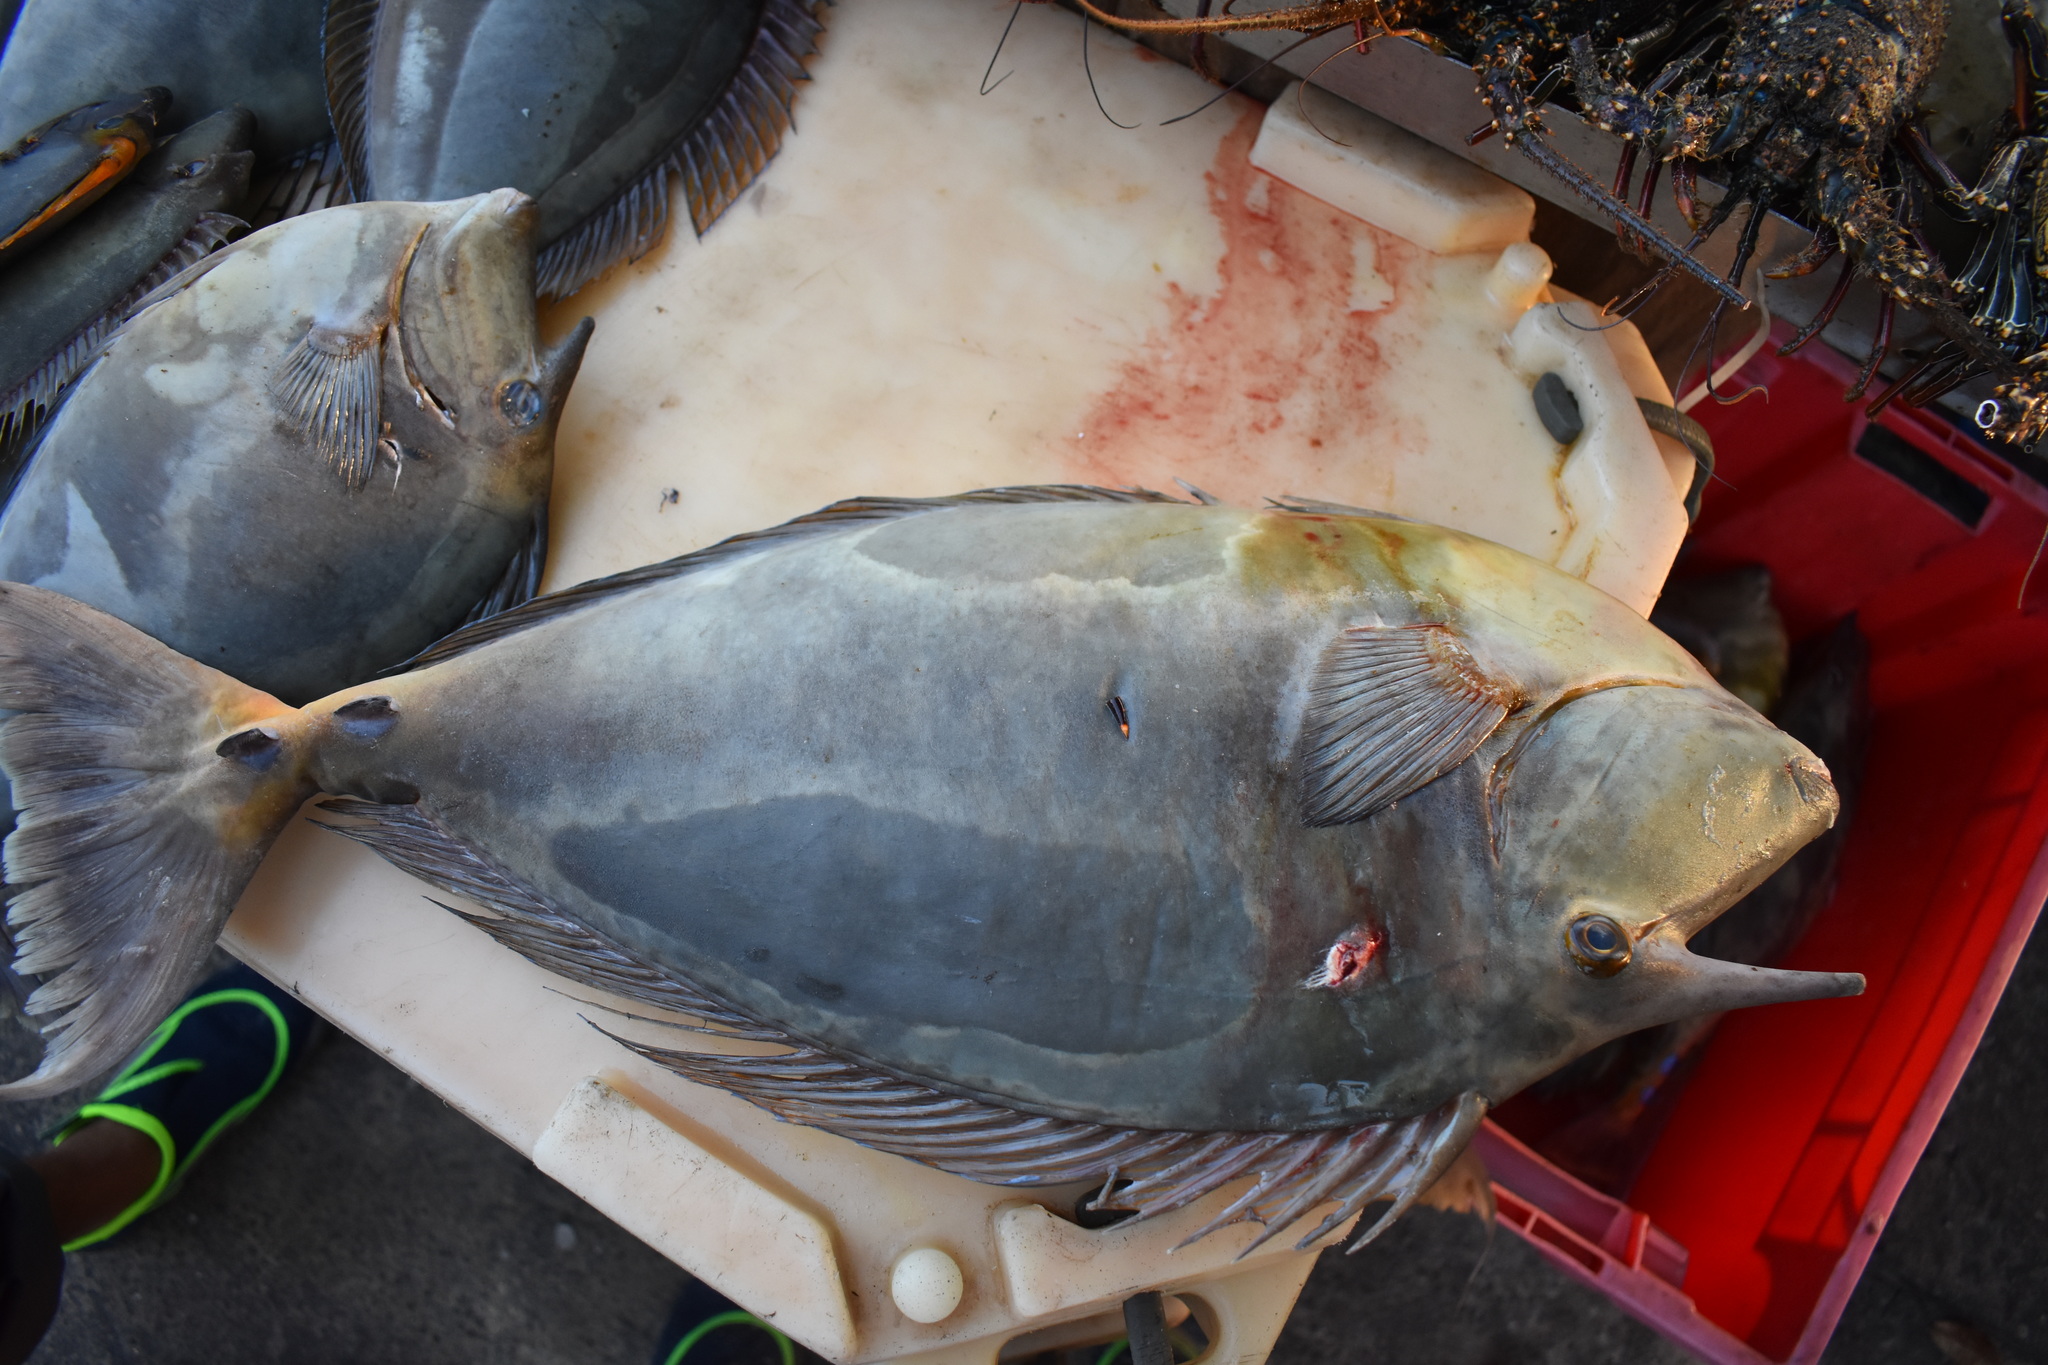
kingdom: Animalia
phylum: Chordata
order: Perciformes
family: Acanthuridae
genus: Naso
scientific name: Naso unicornis
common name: Bluespine unicornfish
